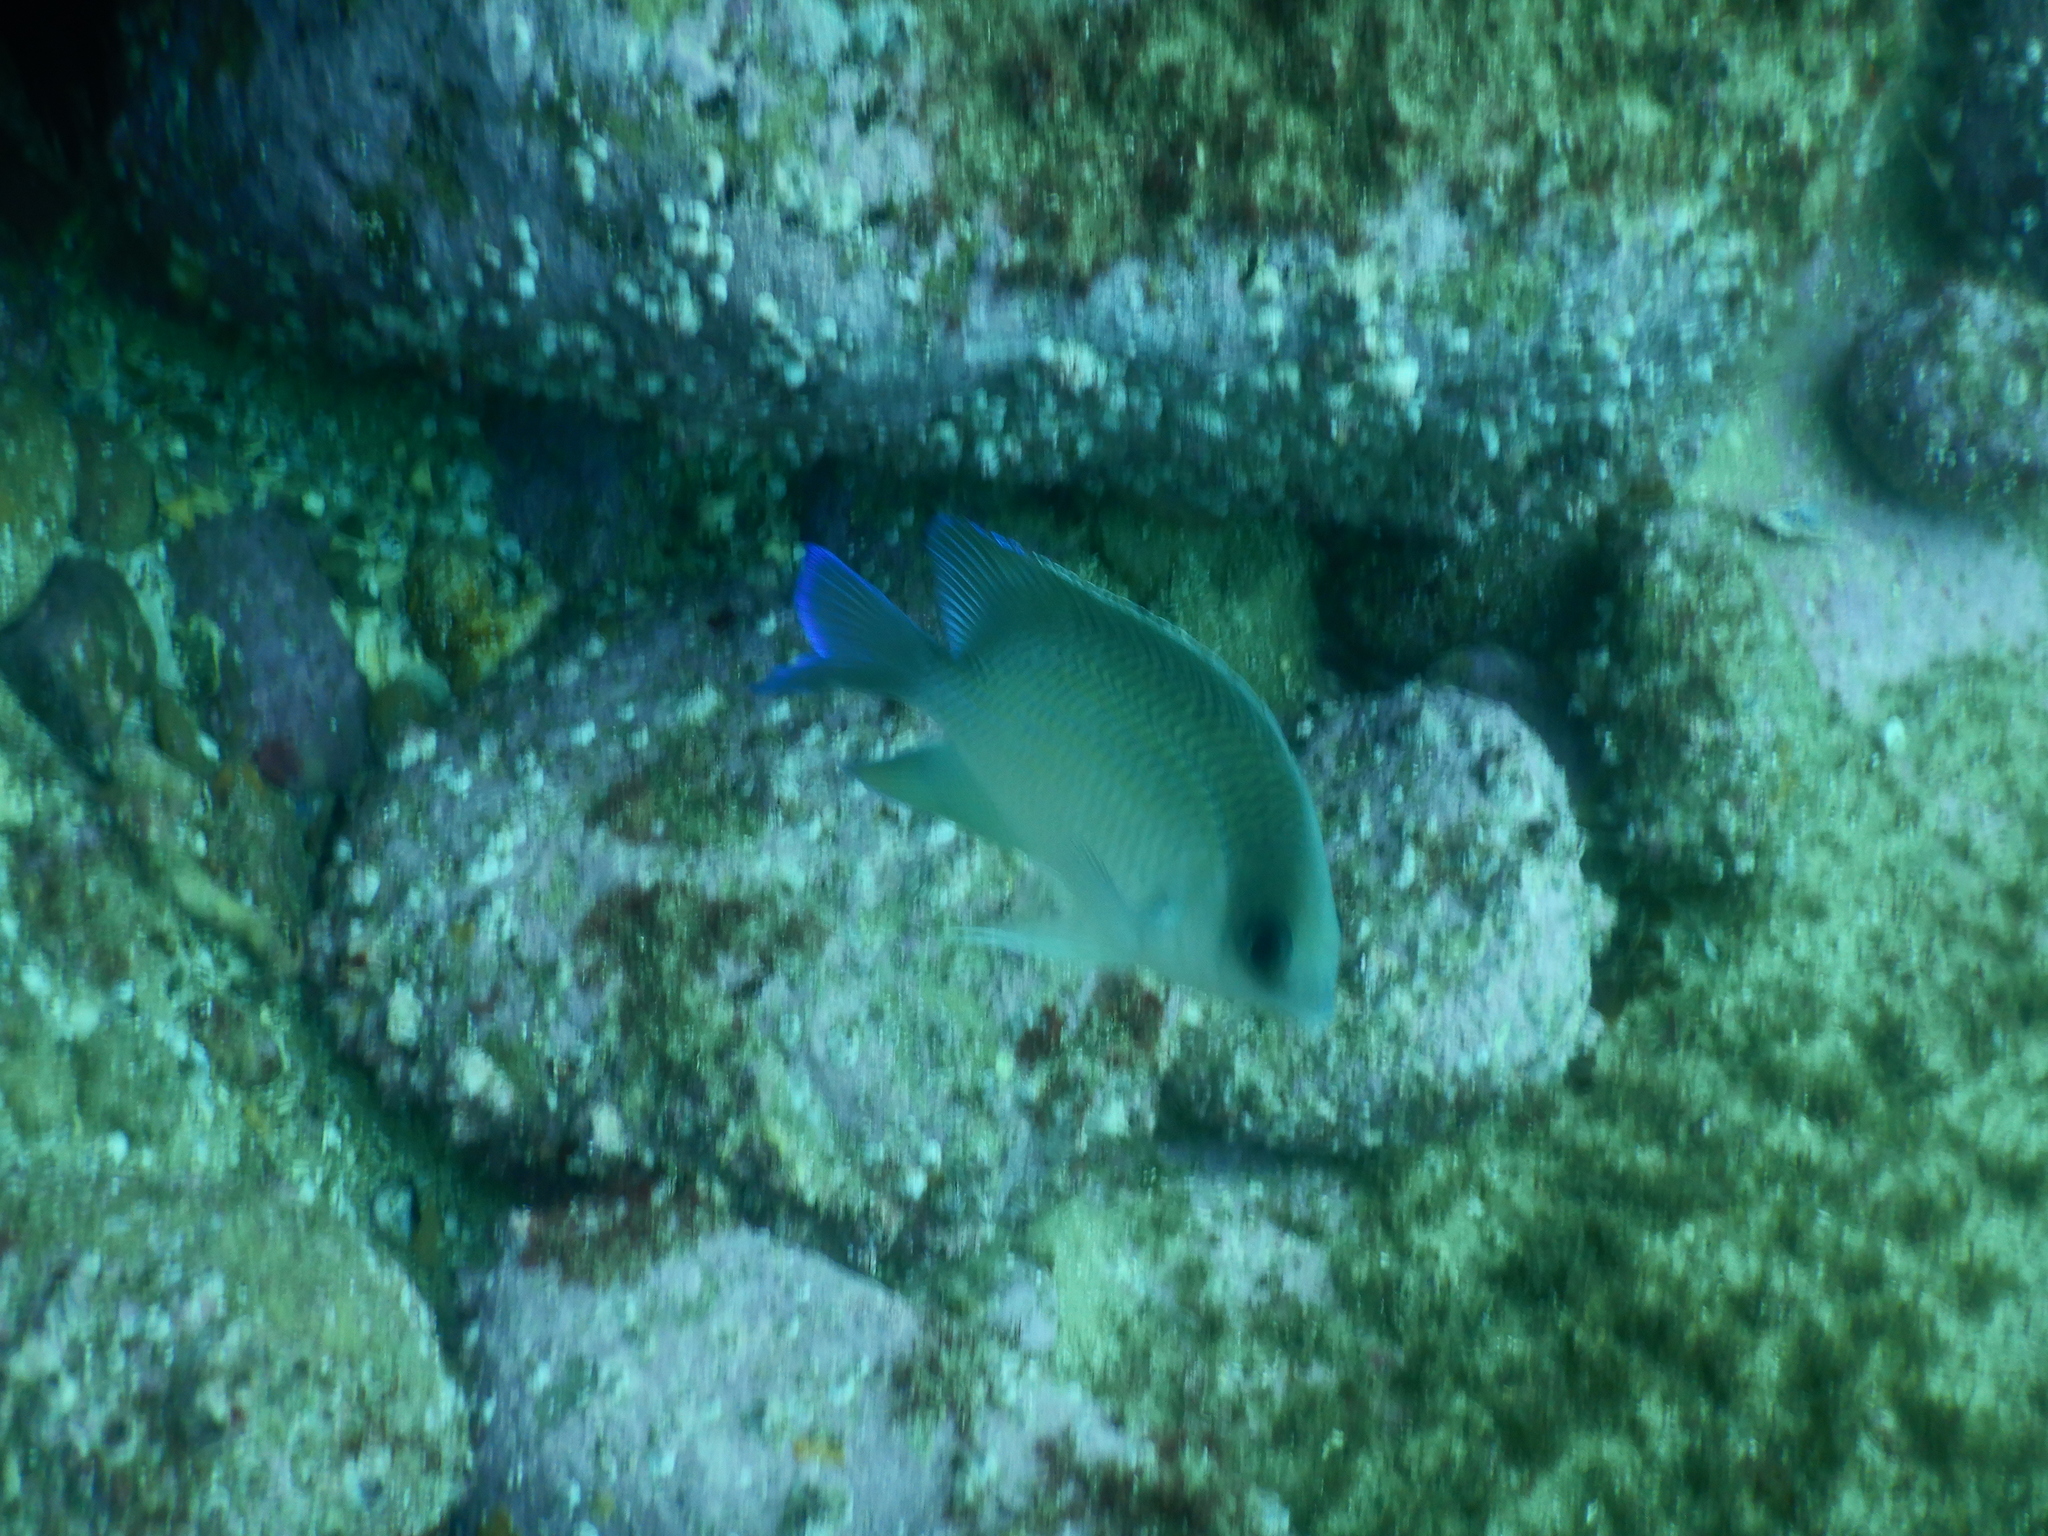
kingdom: Animalia
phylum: Chordata
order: Perciformes
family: Pomacentridae
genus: Mecaenichthys
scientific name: Mecaenichthys immaculatus
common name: Immaculate damsel
